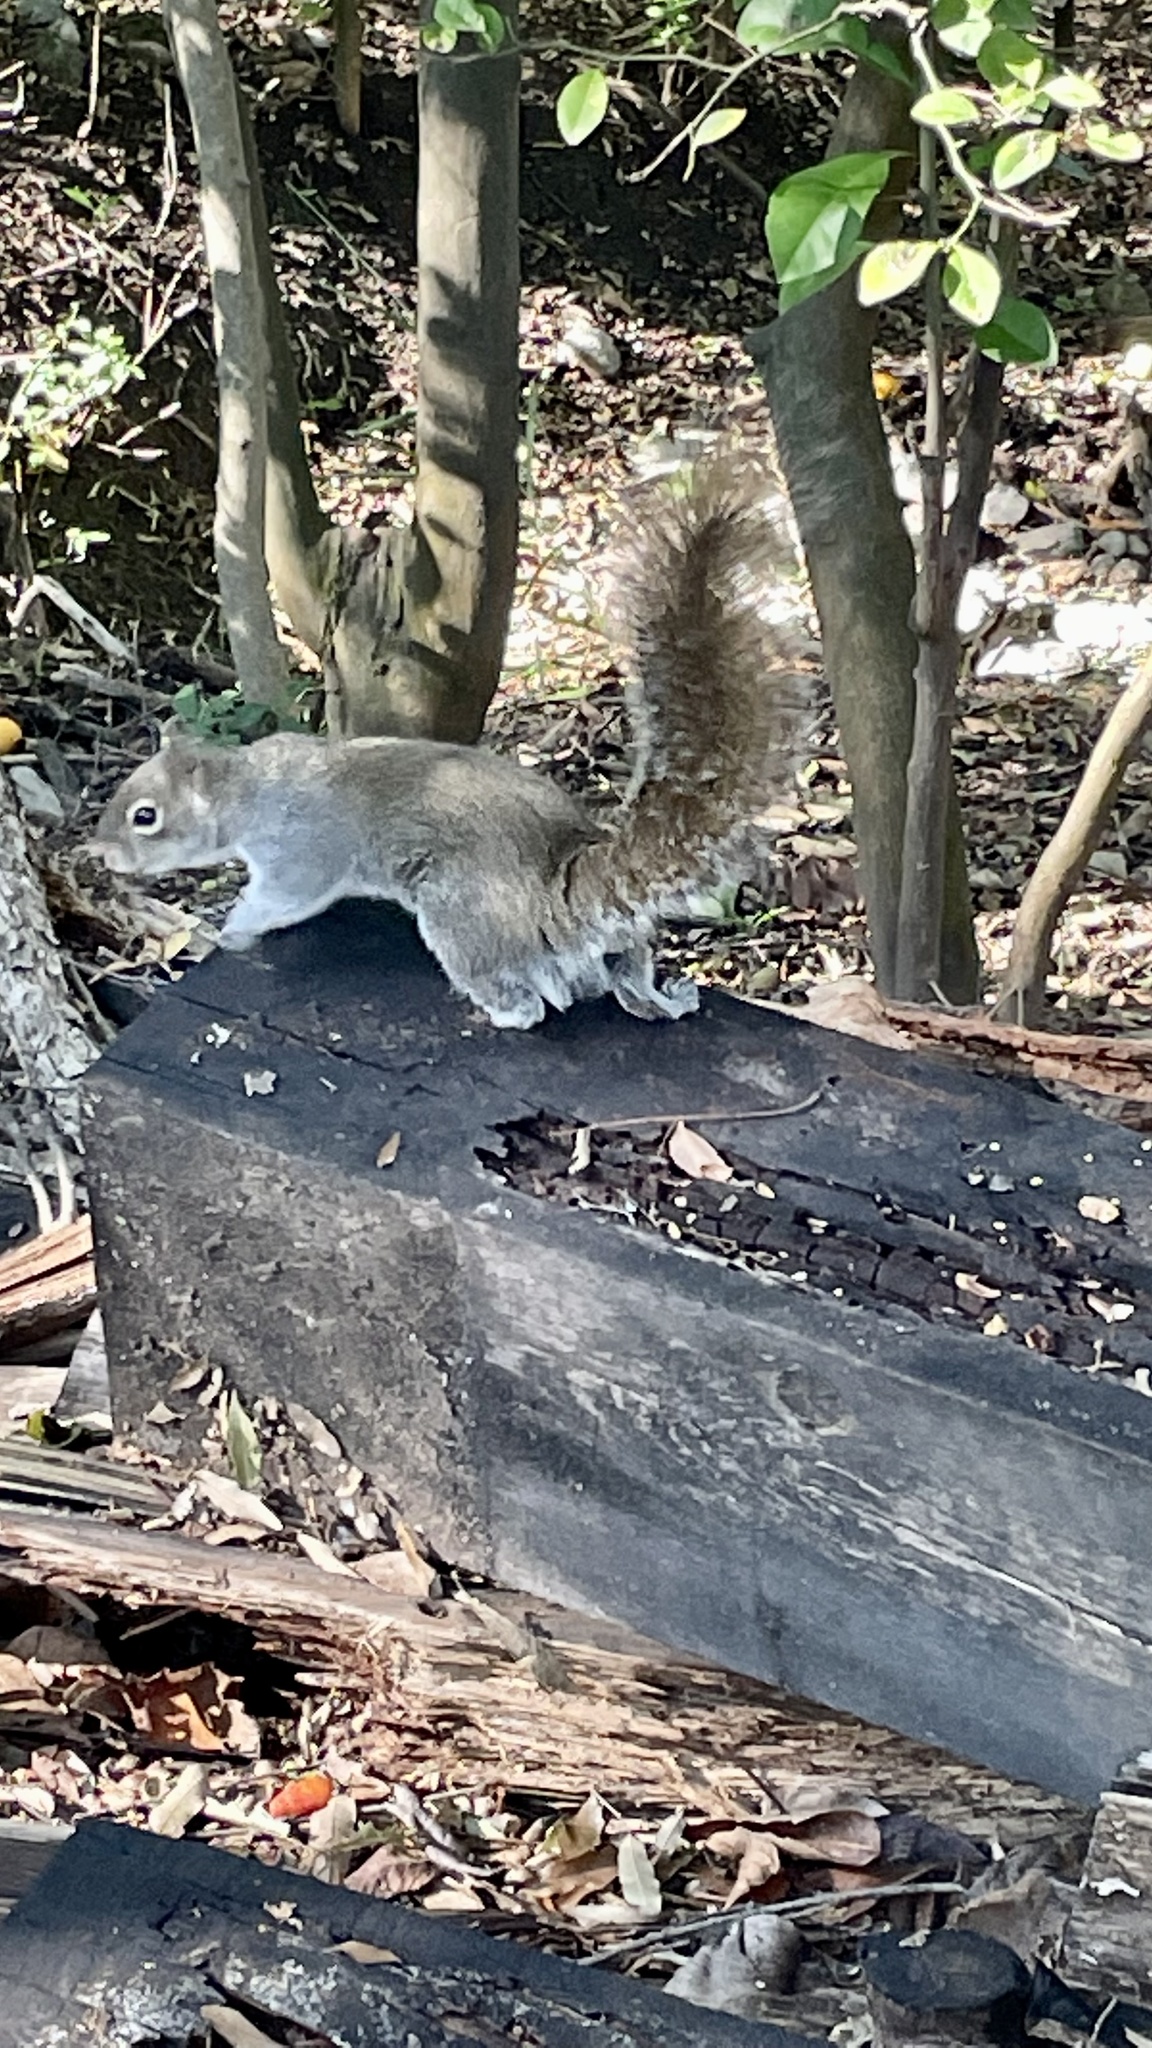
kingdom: Animalia
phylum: Chordata
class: Mammalia
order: Rodentia
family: Sciuridae
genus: Sciurus
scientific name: Sciurus alleni
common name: Allen's squirrel
